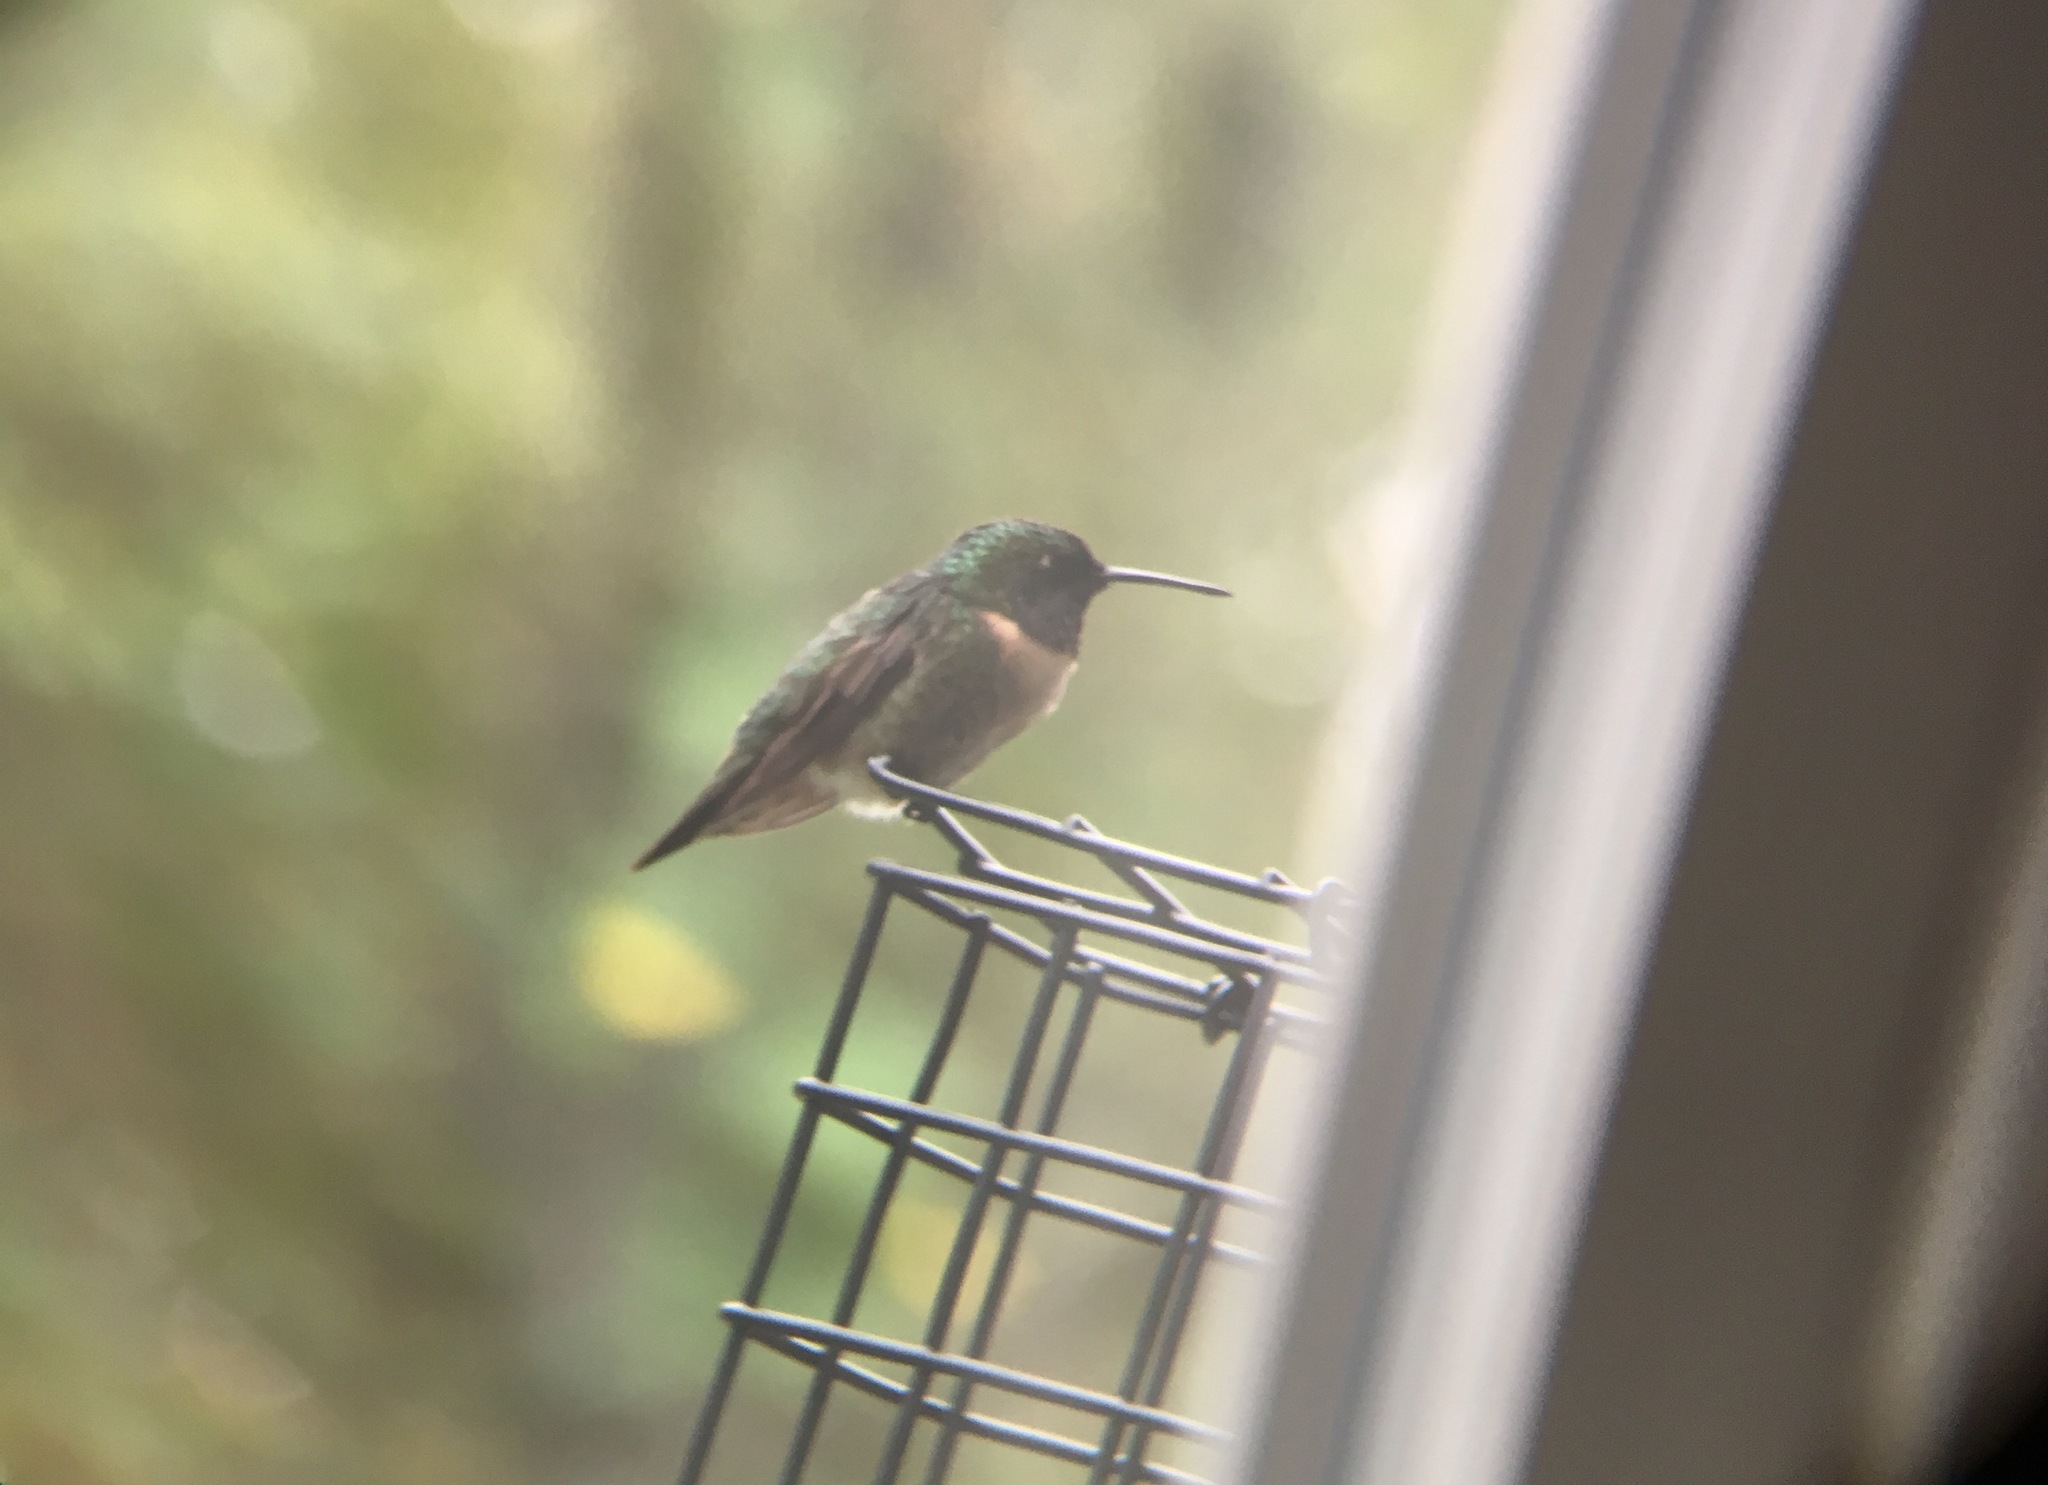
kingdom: Animalia
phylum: Chordata
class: Aves
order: Apodiformes
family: Trochilidae
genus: Archilochus
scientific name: Archilochus colubris
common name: Ruby-throated hummingbird
